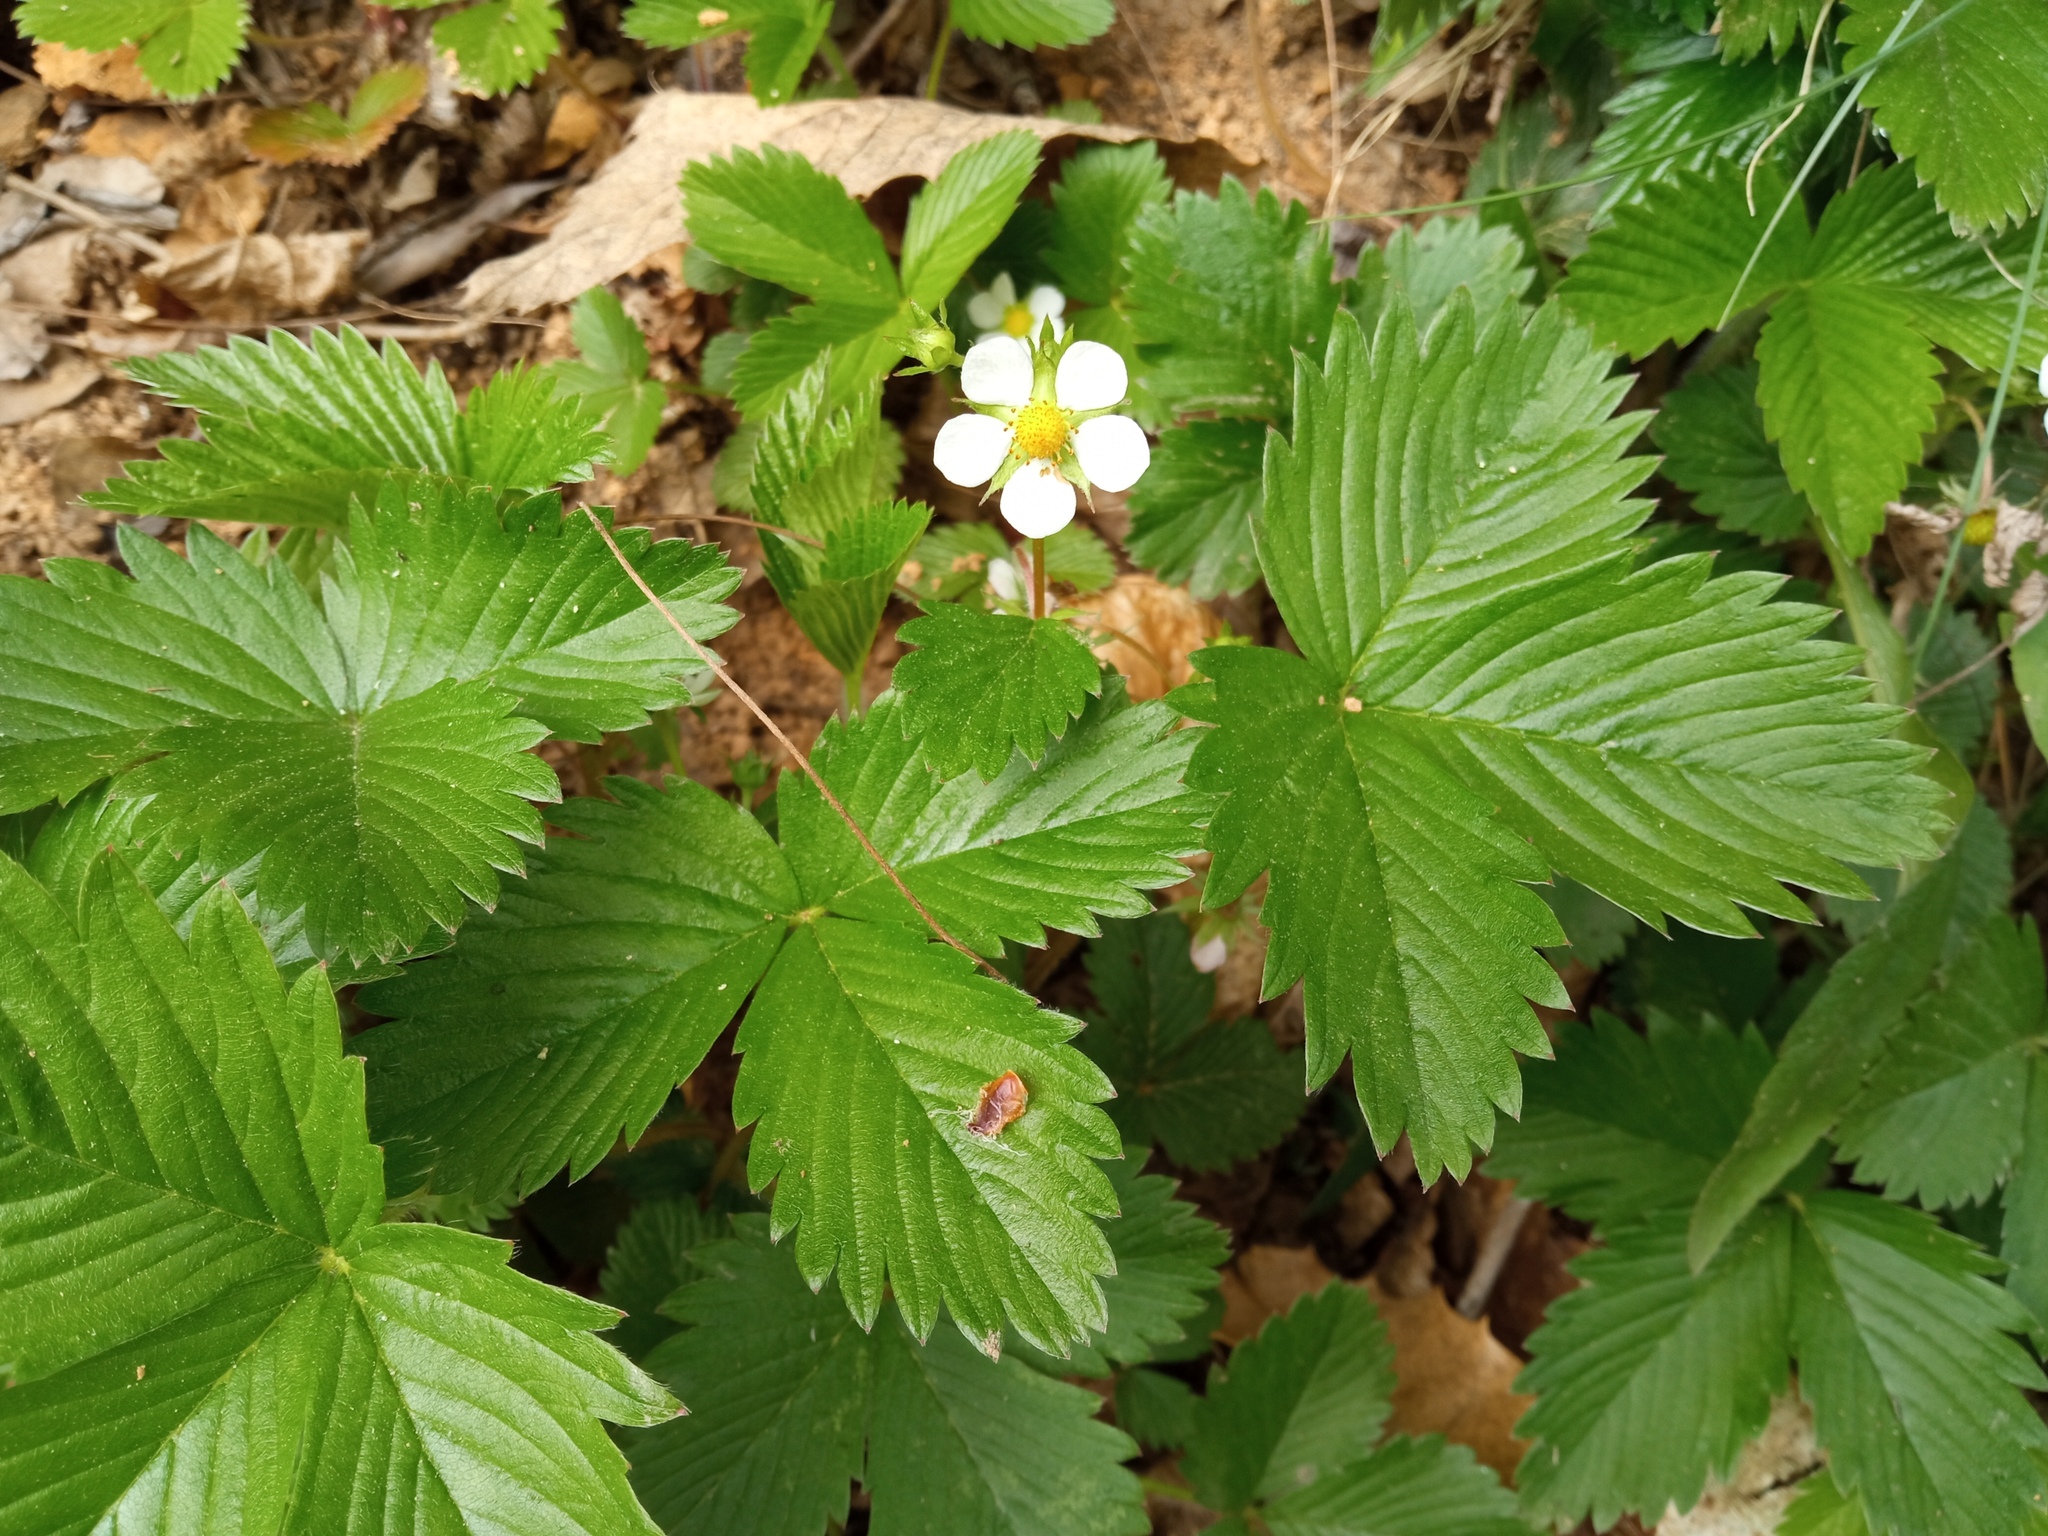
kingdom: Plantae
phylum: Tracheophyta
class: Magnoliopsida
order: Rosales
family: Rosaceae
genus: Fragaria
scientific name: Fragaria vesca
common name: Wild strawberry
